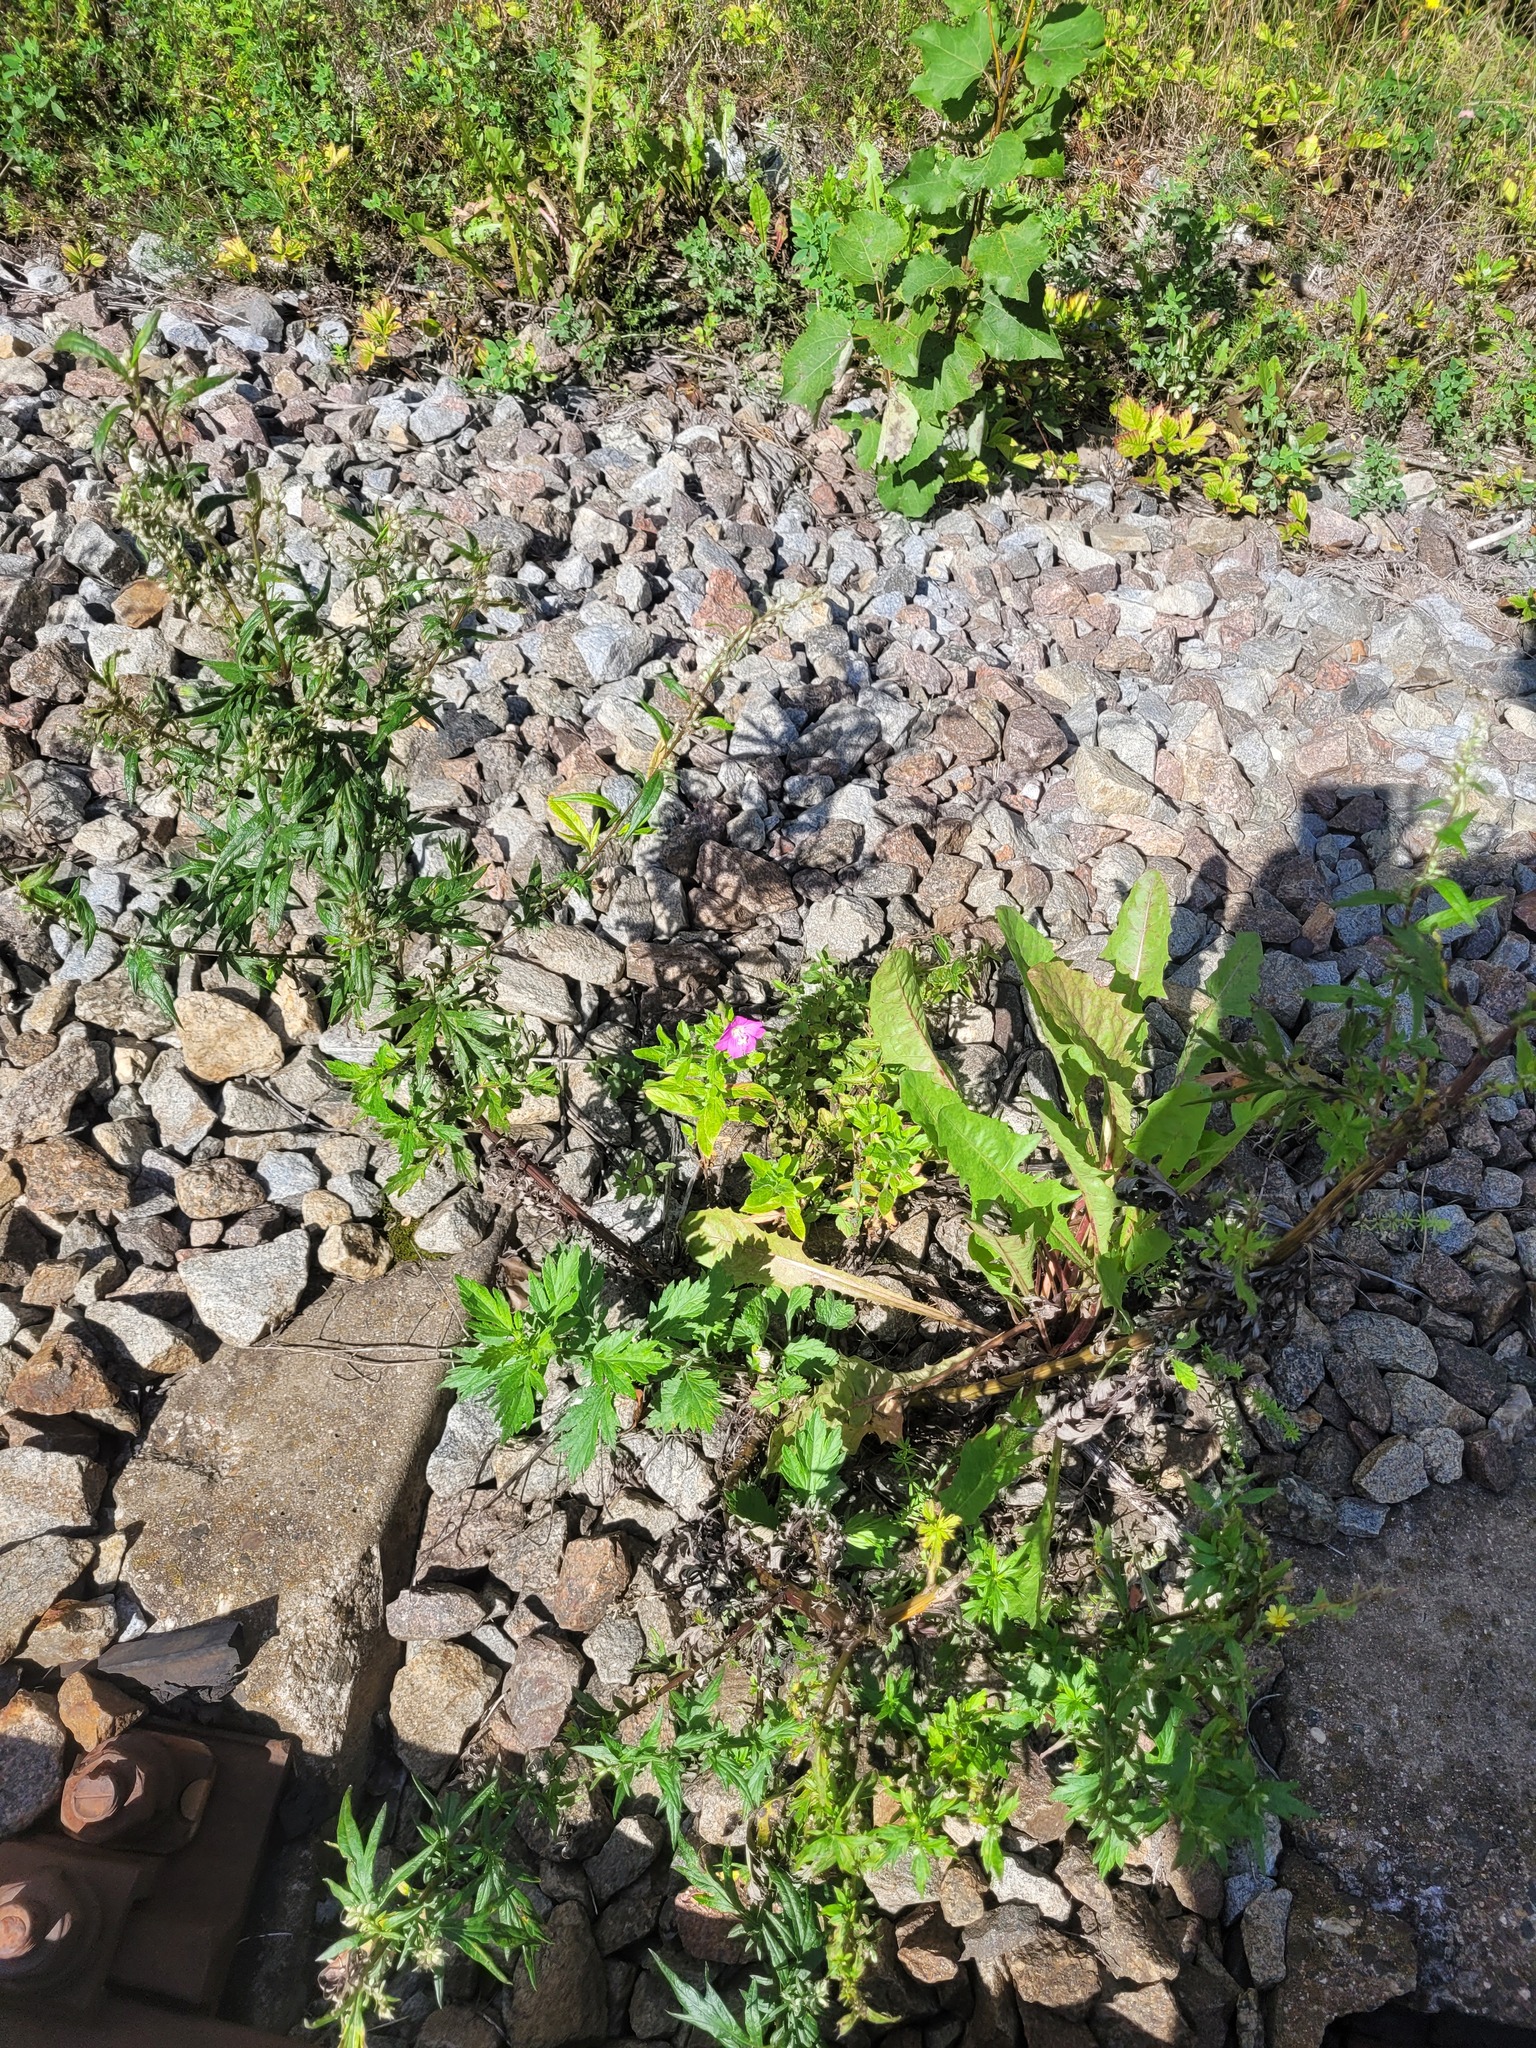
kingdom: Plantae
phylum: Tracheophyta
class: Magnoliopsida
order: Myrtales
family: Onagraceae
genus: Epilobium
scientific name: Epilobium hirsutum
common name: Great willowherb
